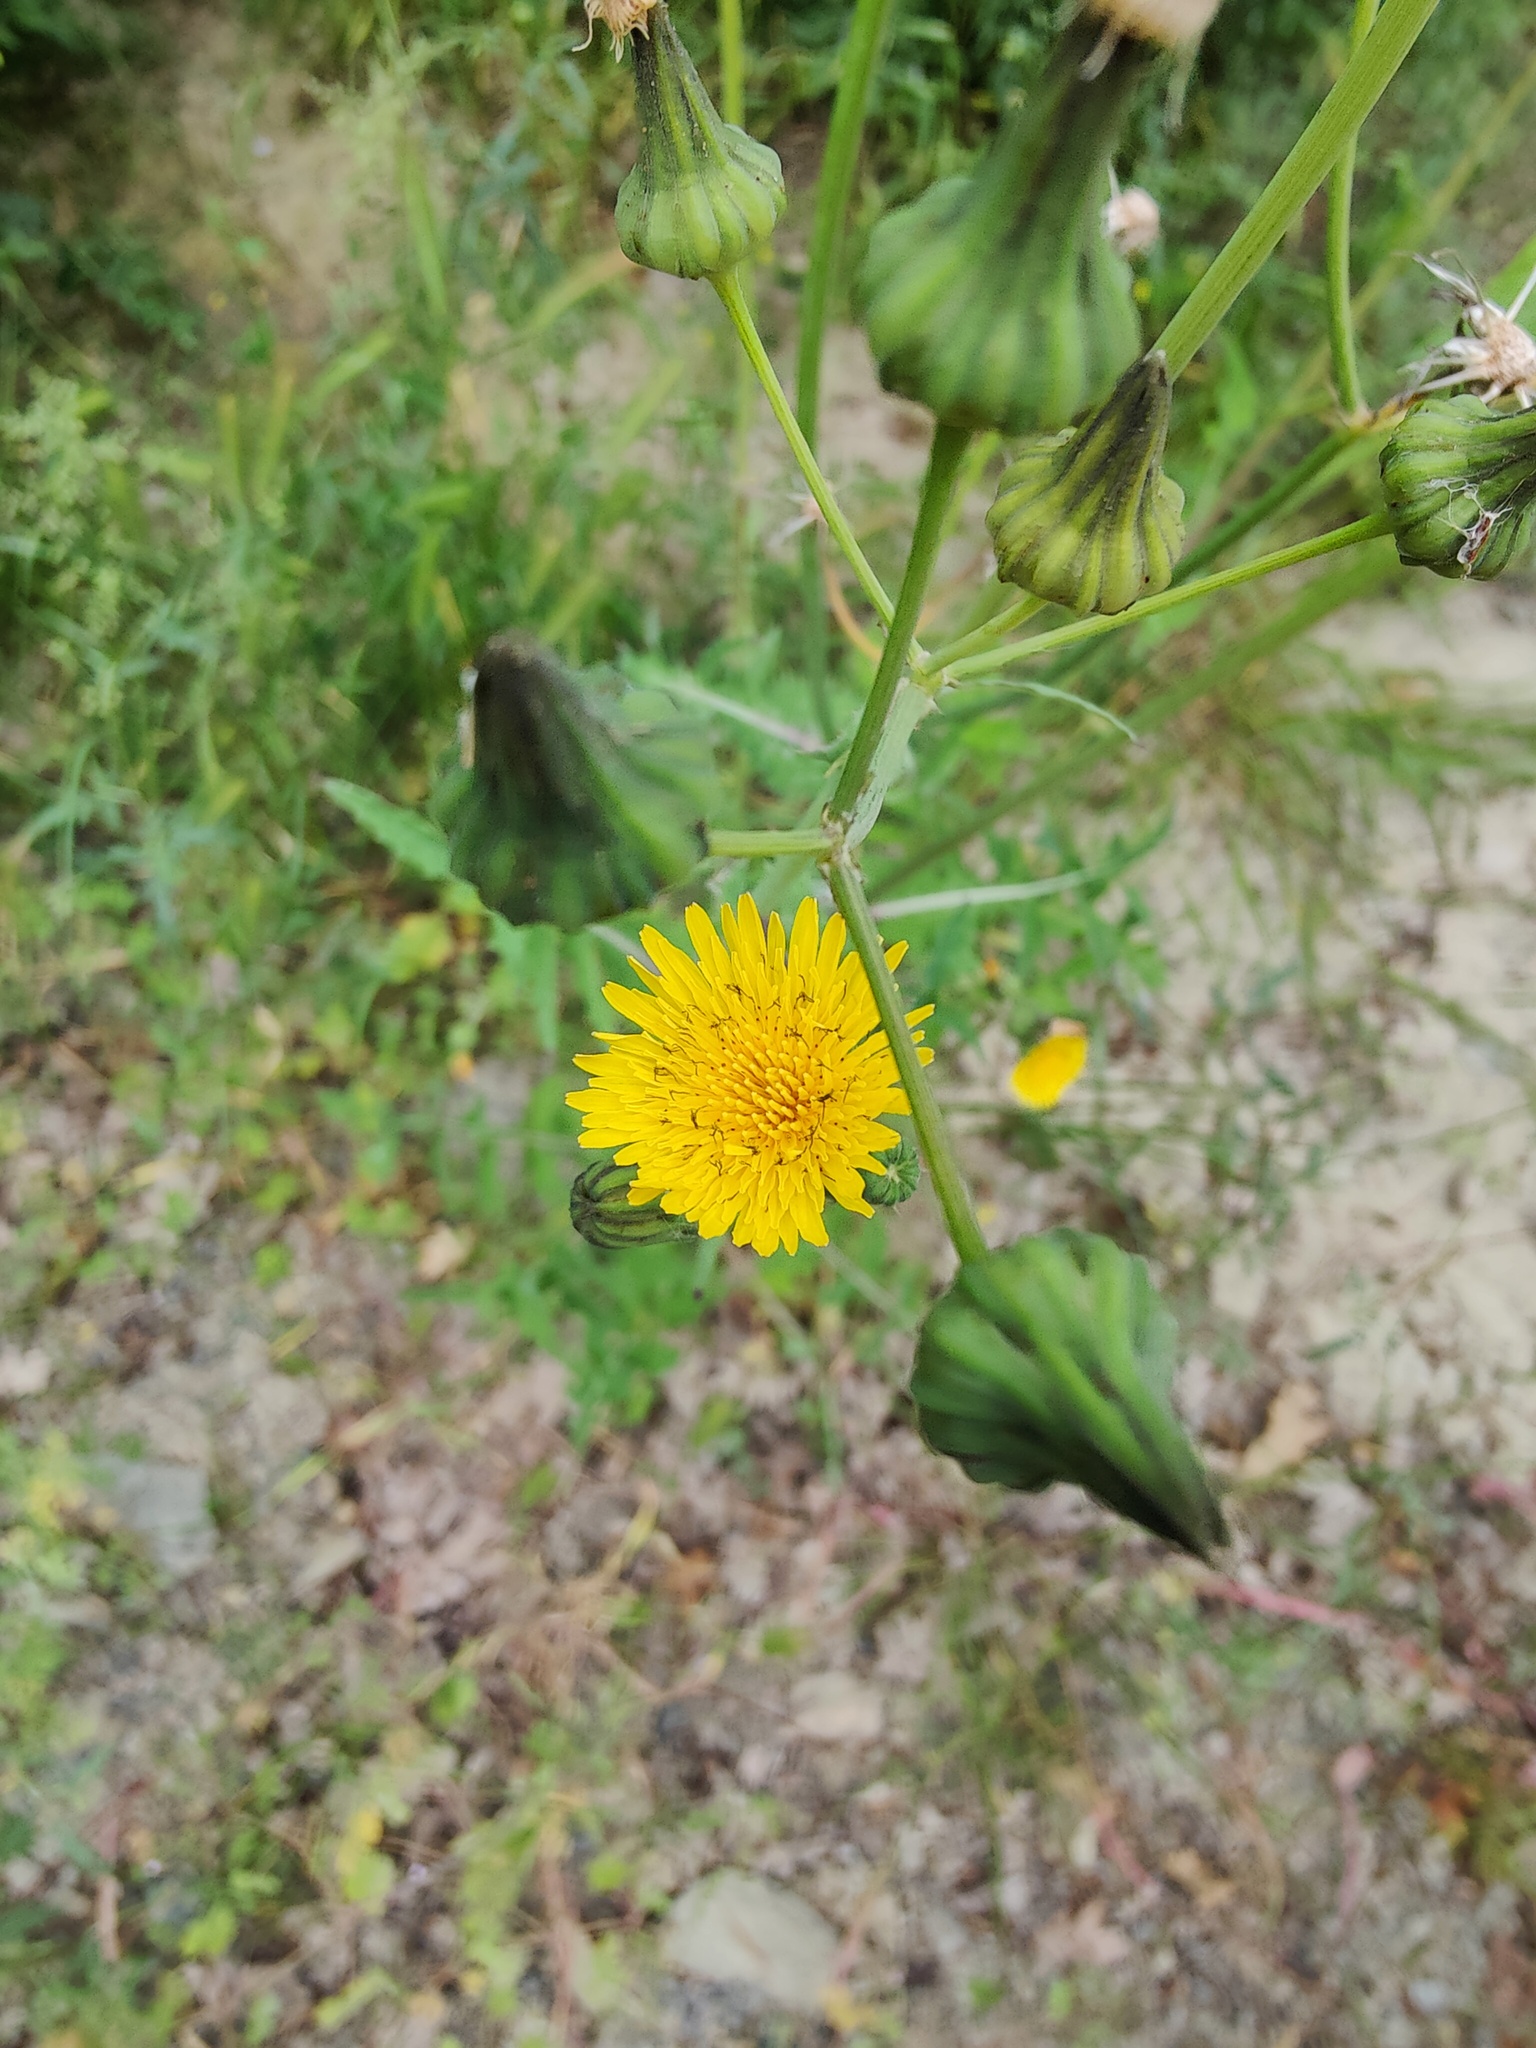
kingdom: Plantae
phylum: Tracheophyta
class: Magnoliopsida
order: Asterales
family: Asteraceae
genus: Sonchus
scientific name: Sonchus oleraceus
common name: Common sowthistle
